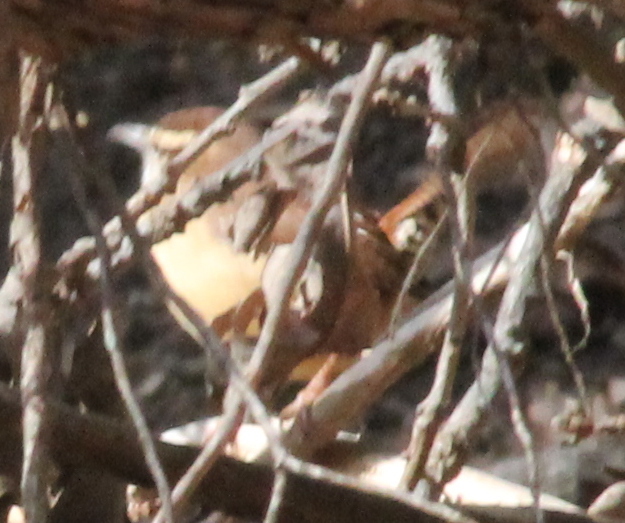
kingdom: Animalia
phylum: Chordata
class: Aves
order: Passeriformes
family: Troglodytidae
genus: Thryothorus
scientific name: Thryothorus ludovicianus
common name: Carolina wren
